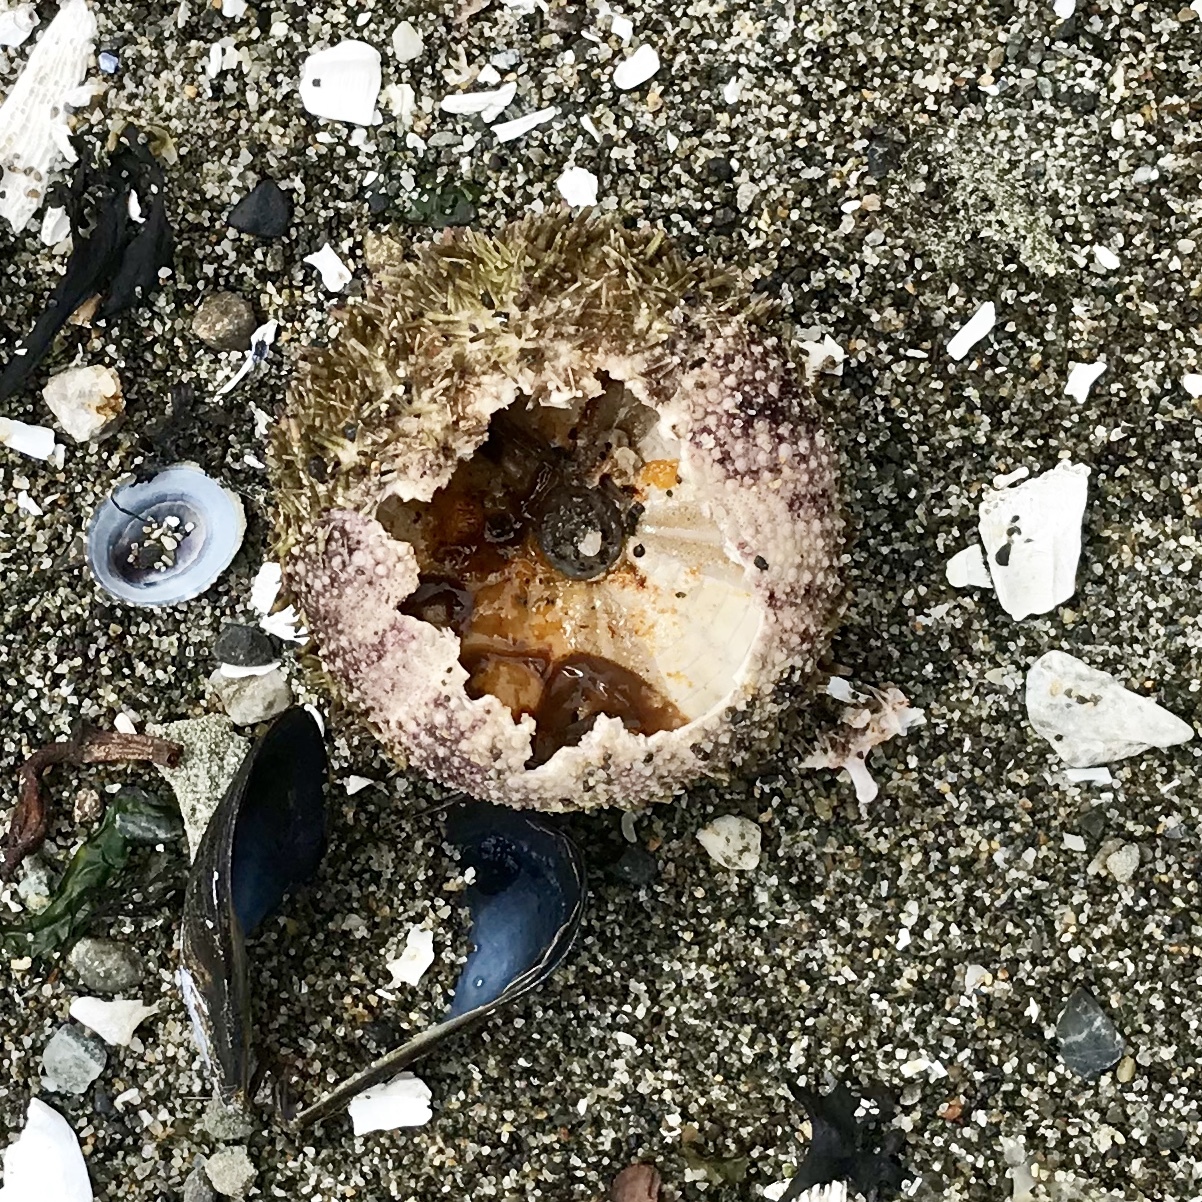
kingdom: Animalia
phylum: Echinodermata
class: Echinoidea
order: Camarodonta
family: Strongylocentrotidae
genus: Strongylocentrotus
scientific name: Strongylocentrotus droebachiensis
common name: Northern sea urchin
